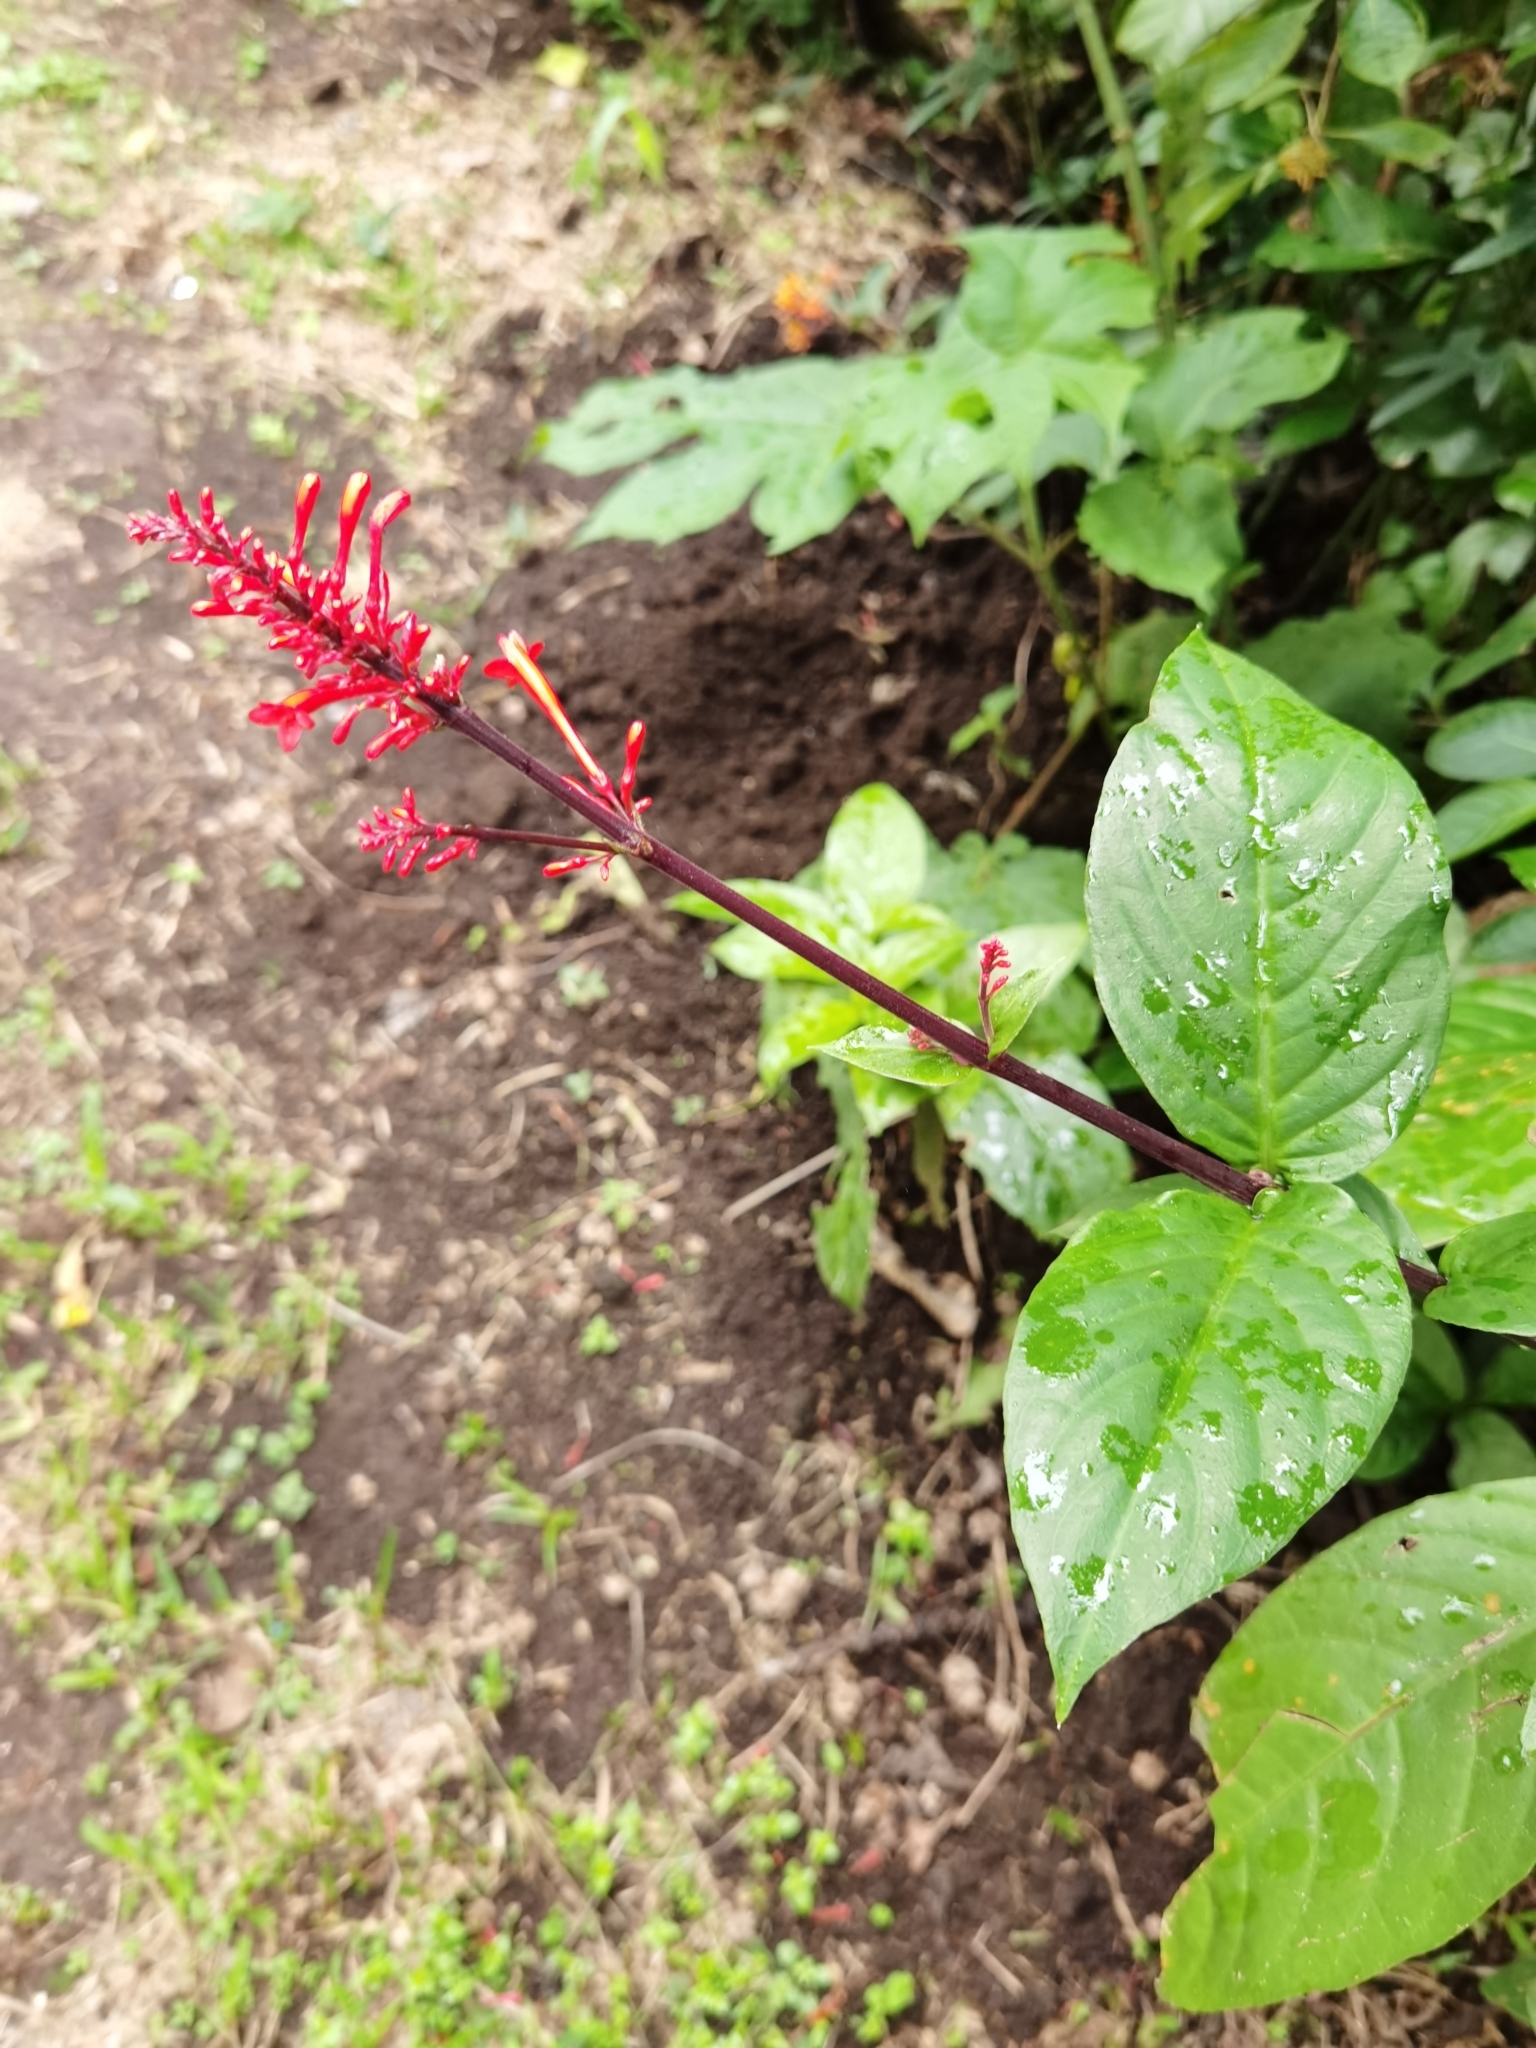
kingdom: Plantae
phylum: Tracheophyta
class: Magnoliopsida
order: Lamiales
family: Acanthaceae
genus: Odontonema
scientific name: Odontonema tubaeforme
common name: Firespike
